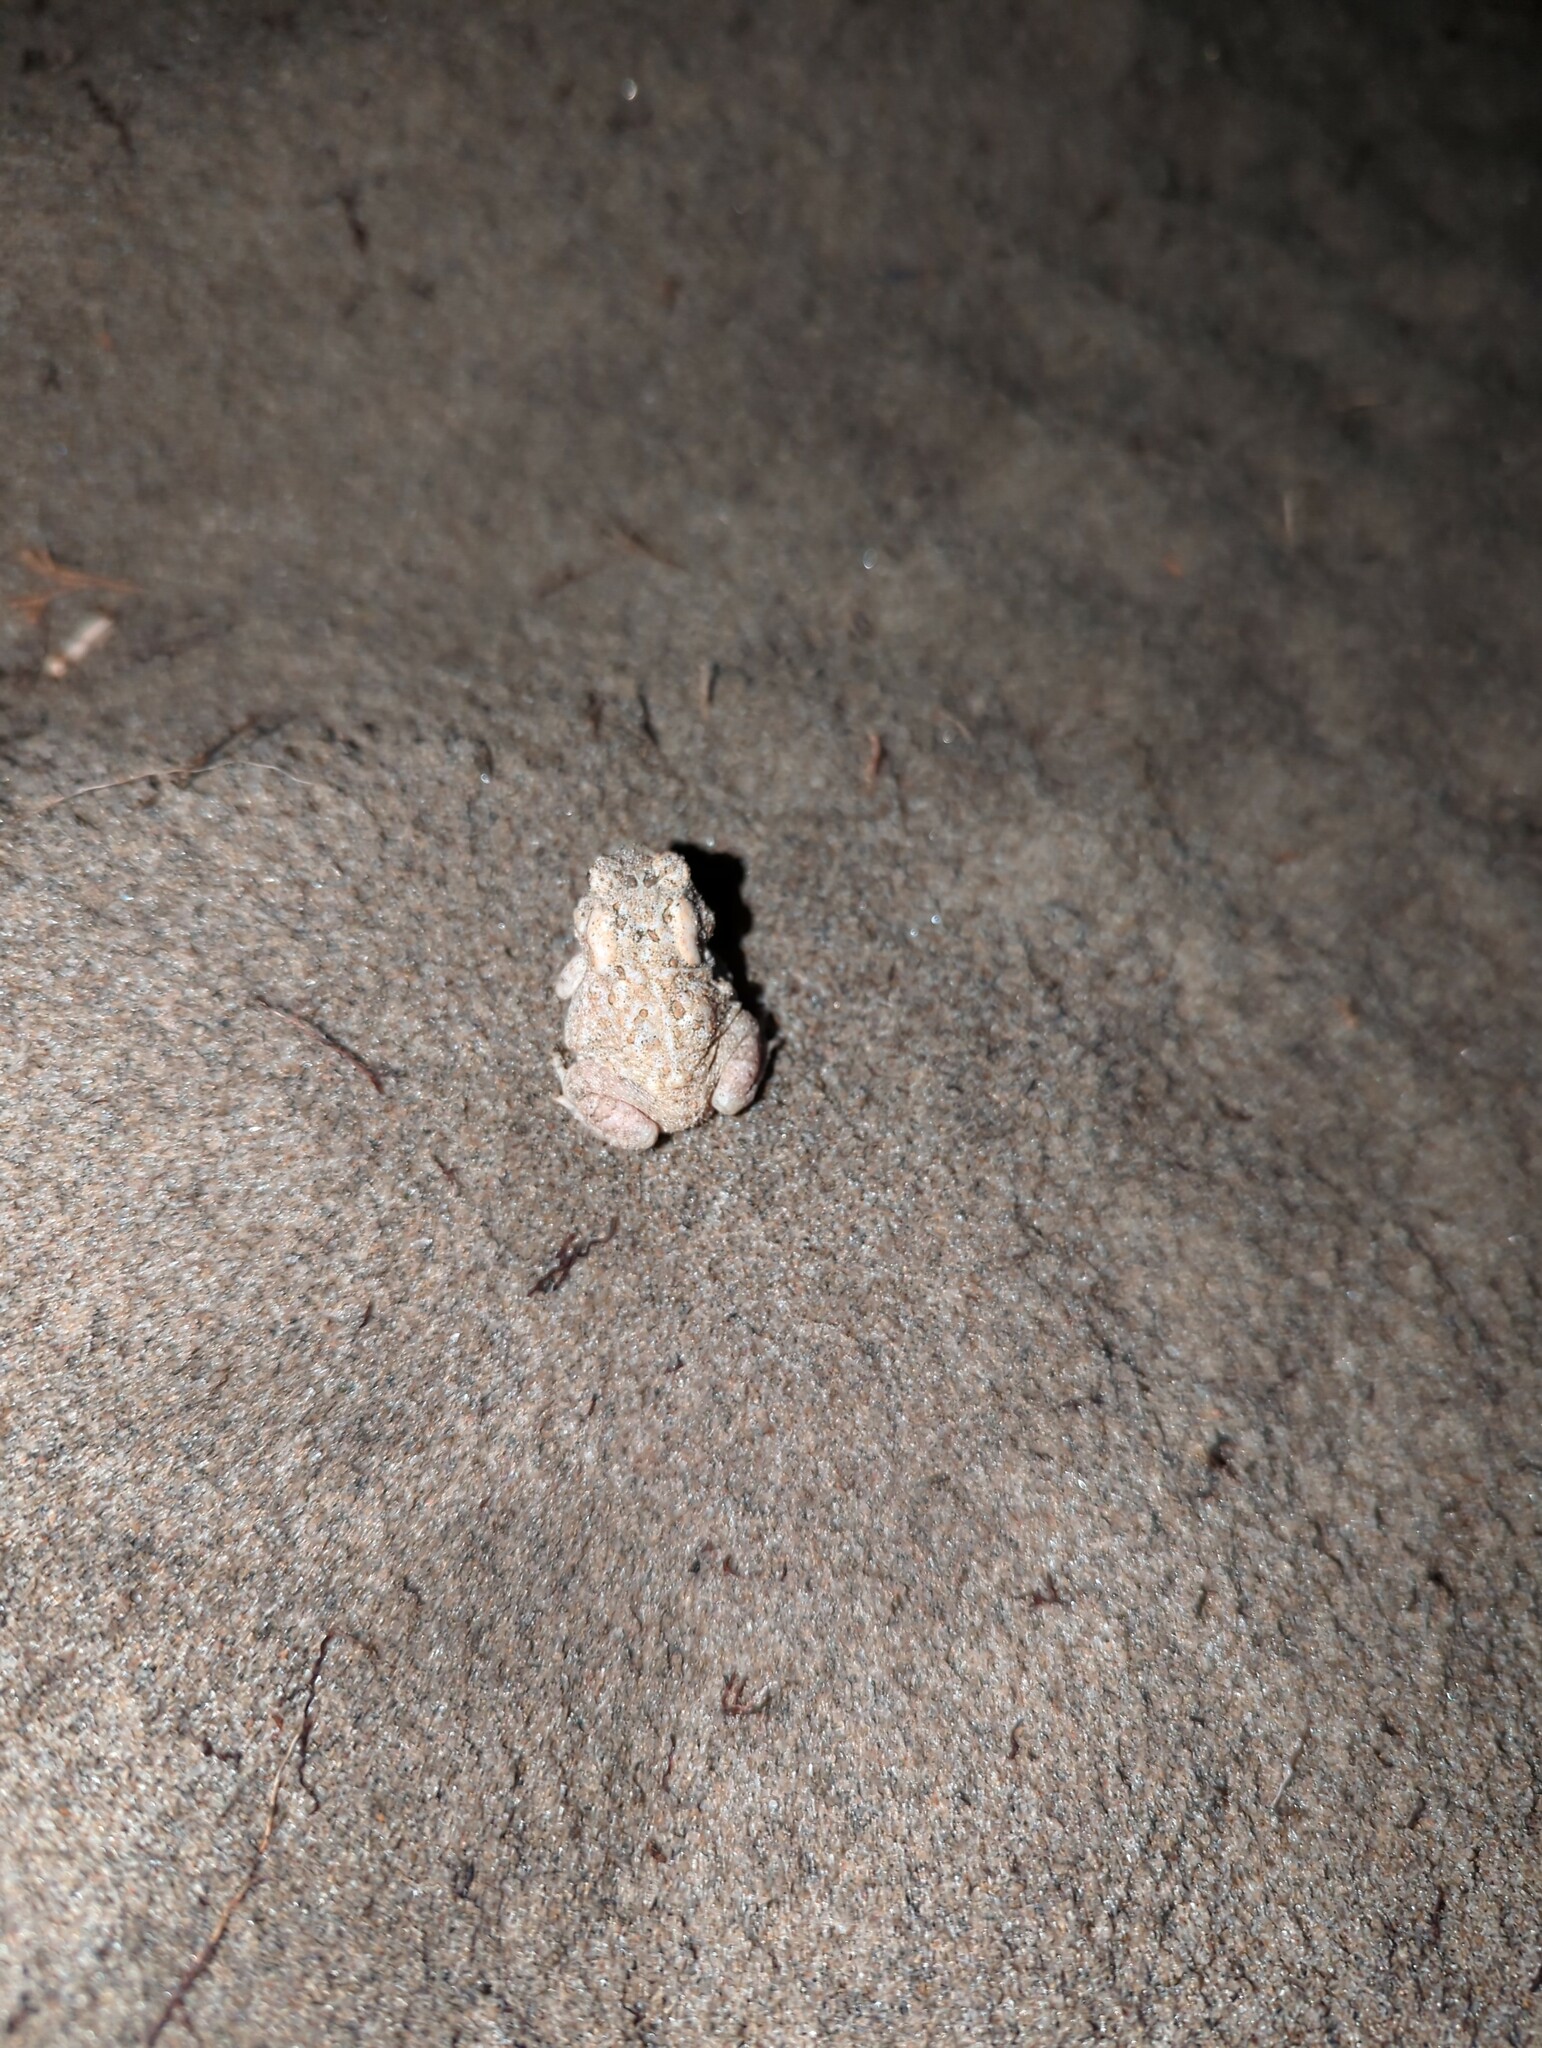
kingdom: Animalia
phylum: Chordata
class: Amphibia
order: Anura
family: Bufonidae
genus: Anaxyrus
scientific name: Anaxyrus fowleri
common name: Fowler's toad
